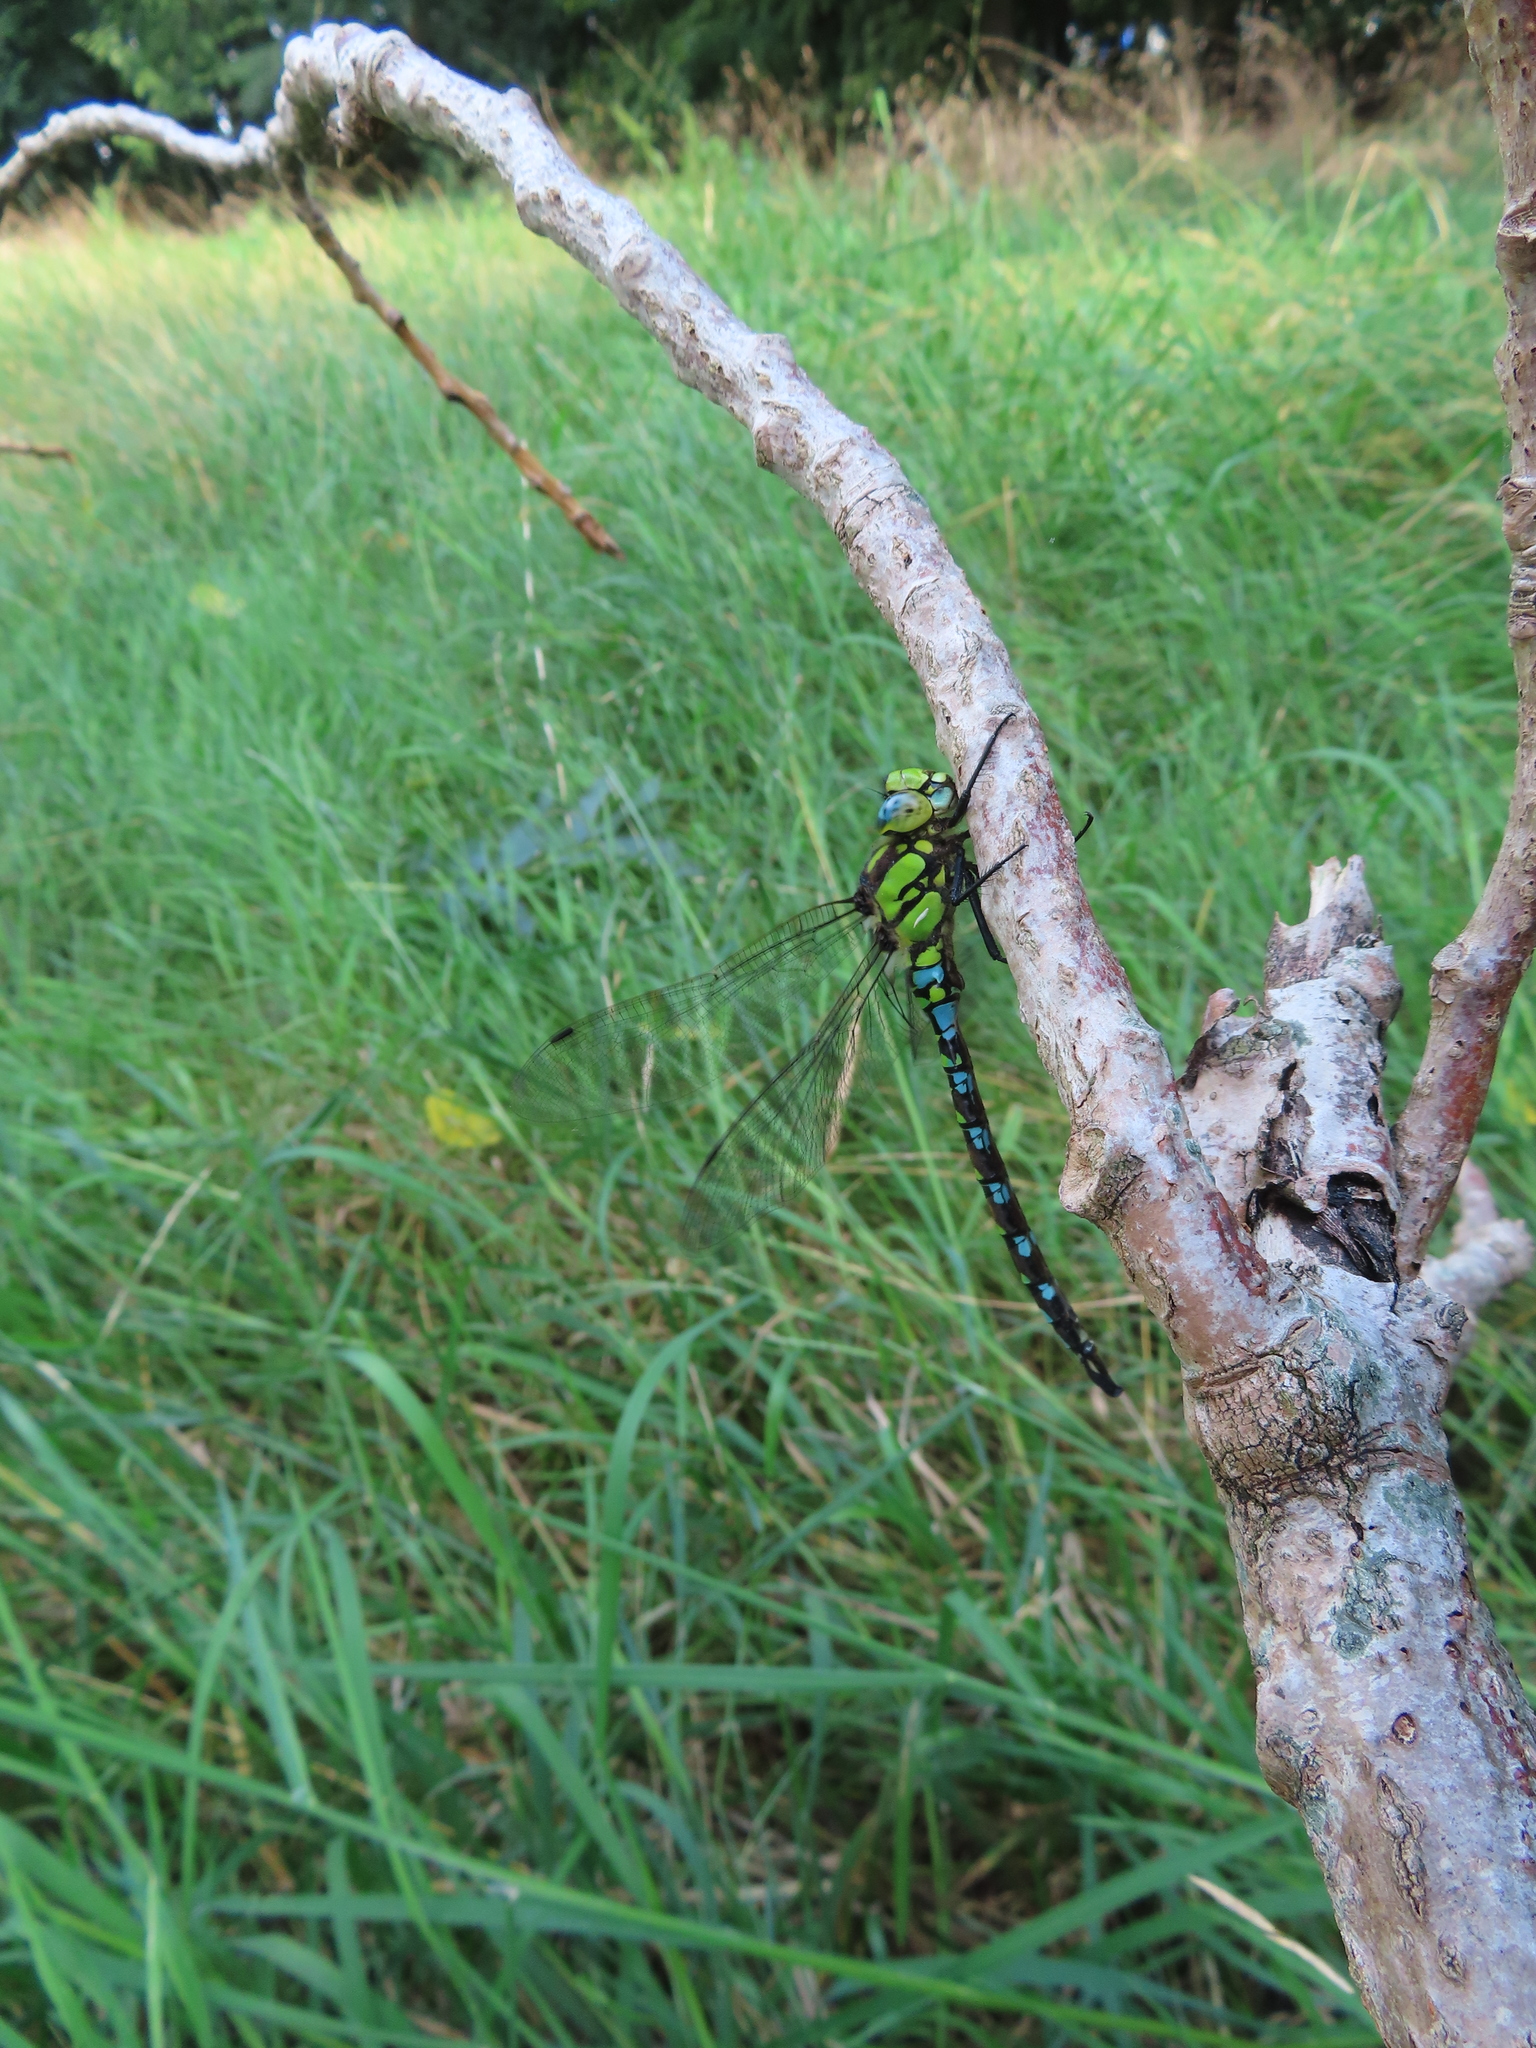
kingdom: Animalia
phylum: Arthropoda
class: Insecta
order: Odonata
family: Aeshnidae
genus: Aeshna
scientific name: Aeshna cyanea
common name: Southern hawker
